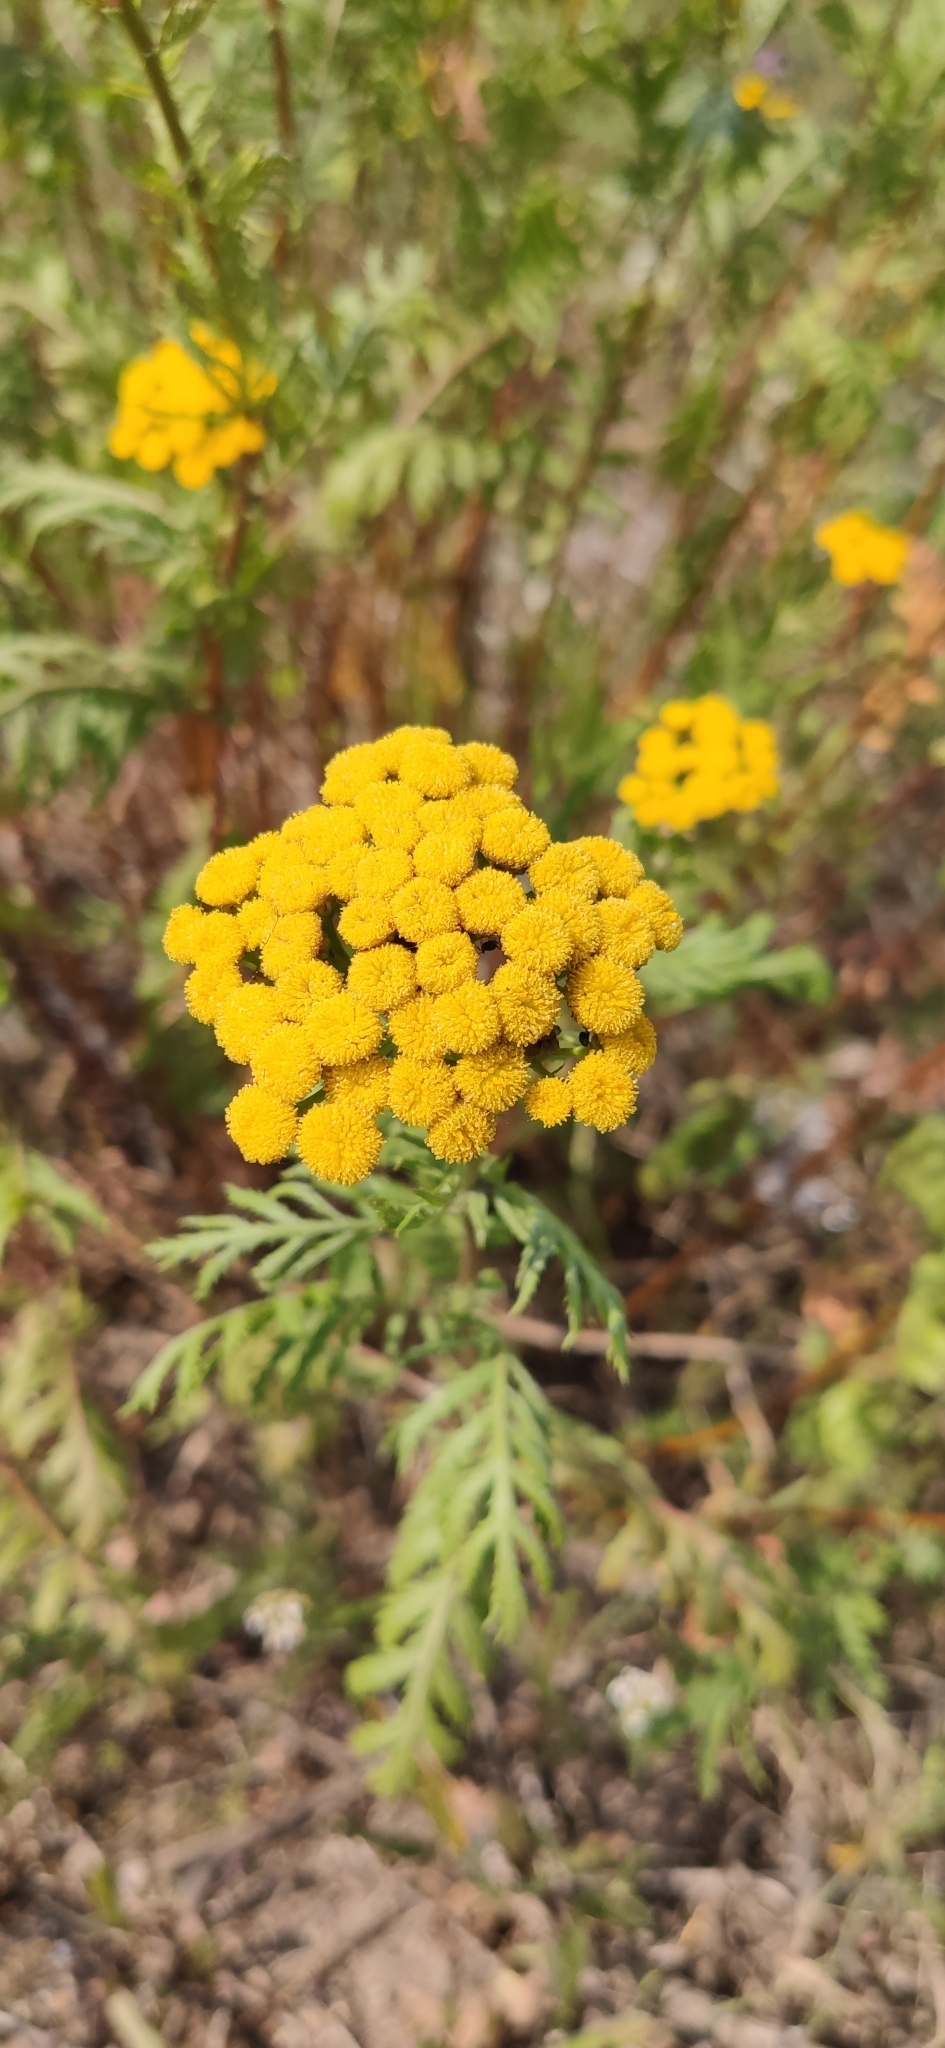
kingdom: Plantae
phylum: Tracheophyta
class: Magnoliopsida
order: Asterales
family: Asteraceae
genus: Tanacetum
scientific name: Tanacetum vulgare
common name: Common tansy
